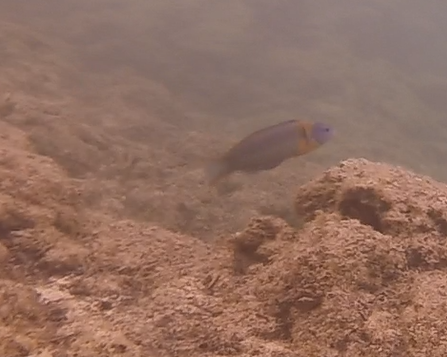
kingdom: Animalia
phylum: Chordata
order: Perciformes
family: Labridae
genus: Thalassoma
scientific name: Thalassoma duperrey
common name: Saddle wrasse
